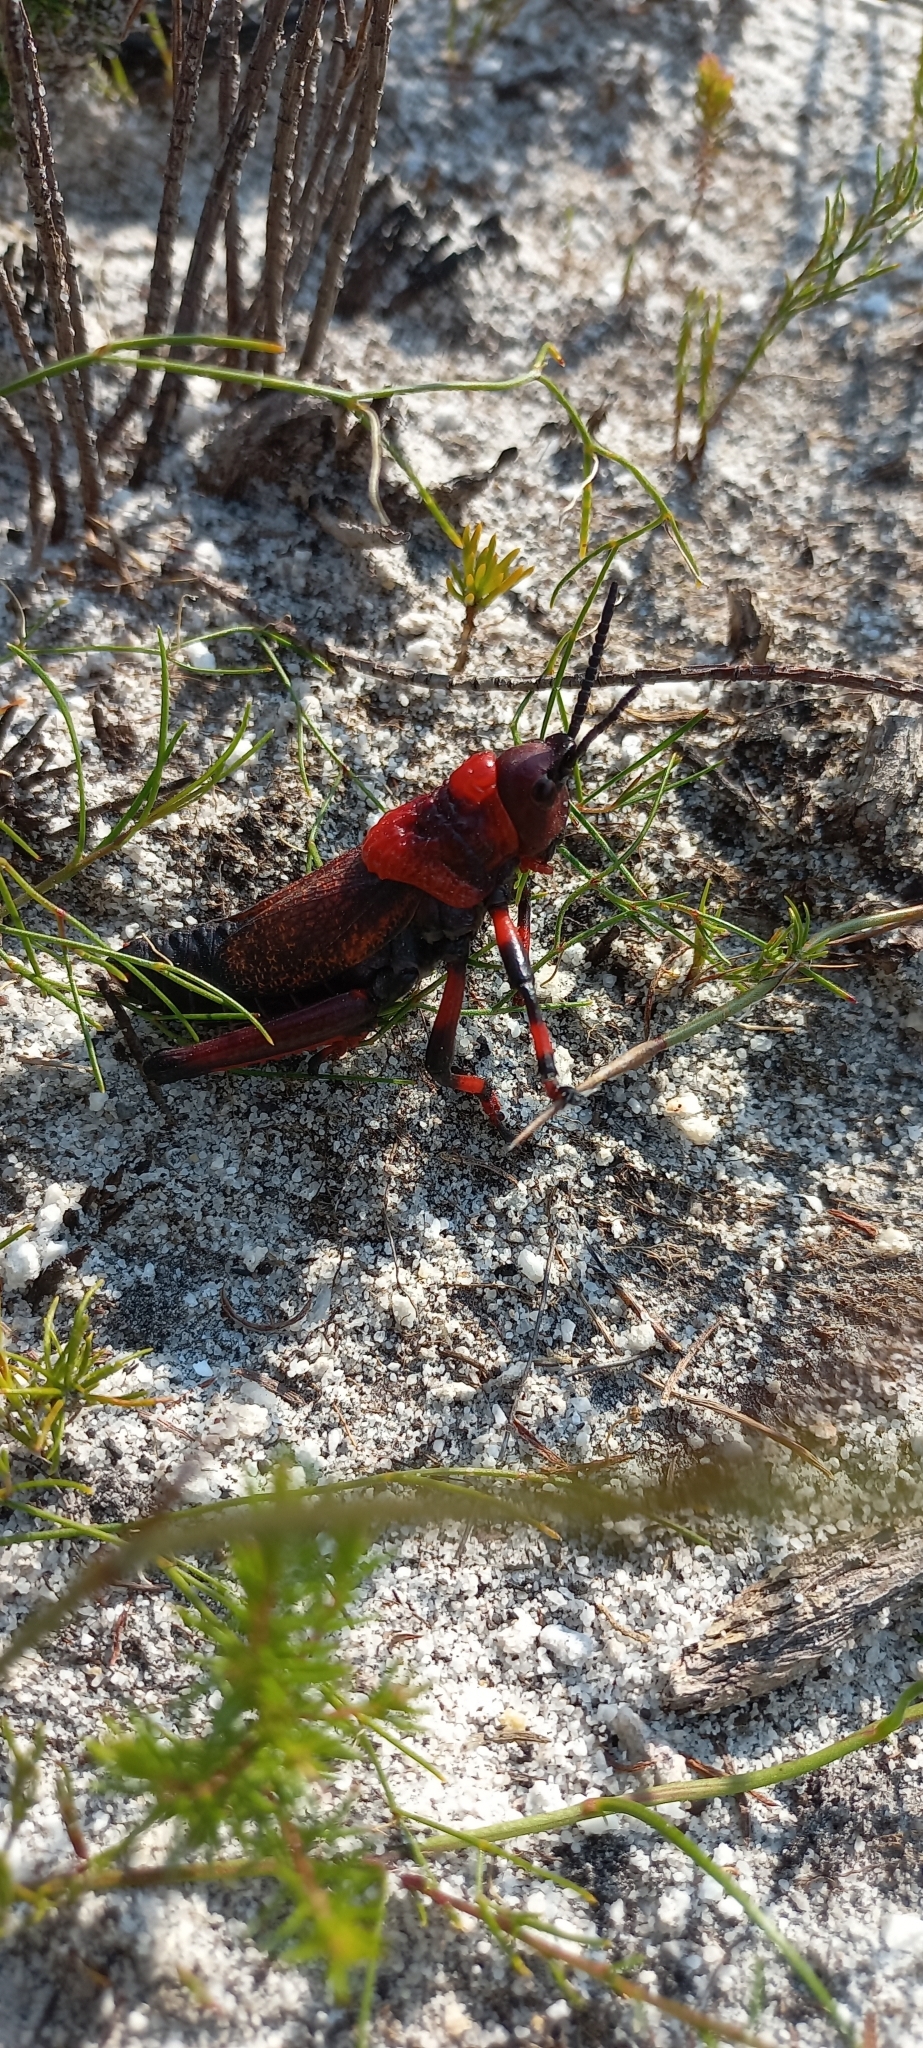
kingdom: Animalia
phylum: Arthropoda
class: Insecta
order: Orthoptera
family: Pyrgomorphidae
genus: Dictyophorus
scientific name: Dictyophorus spumans
